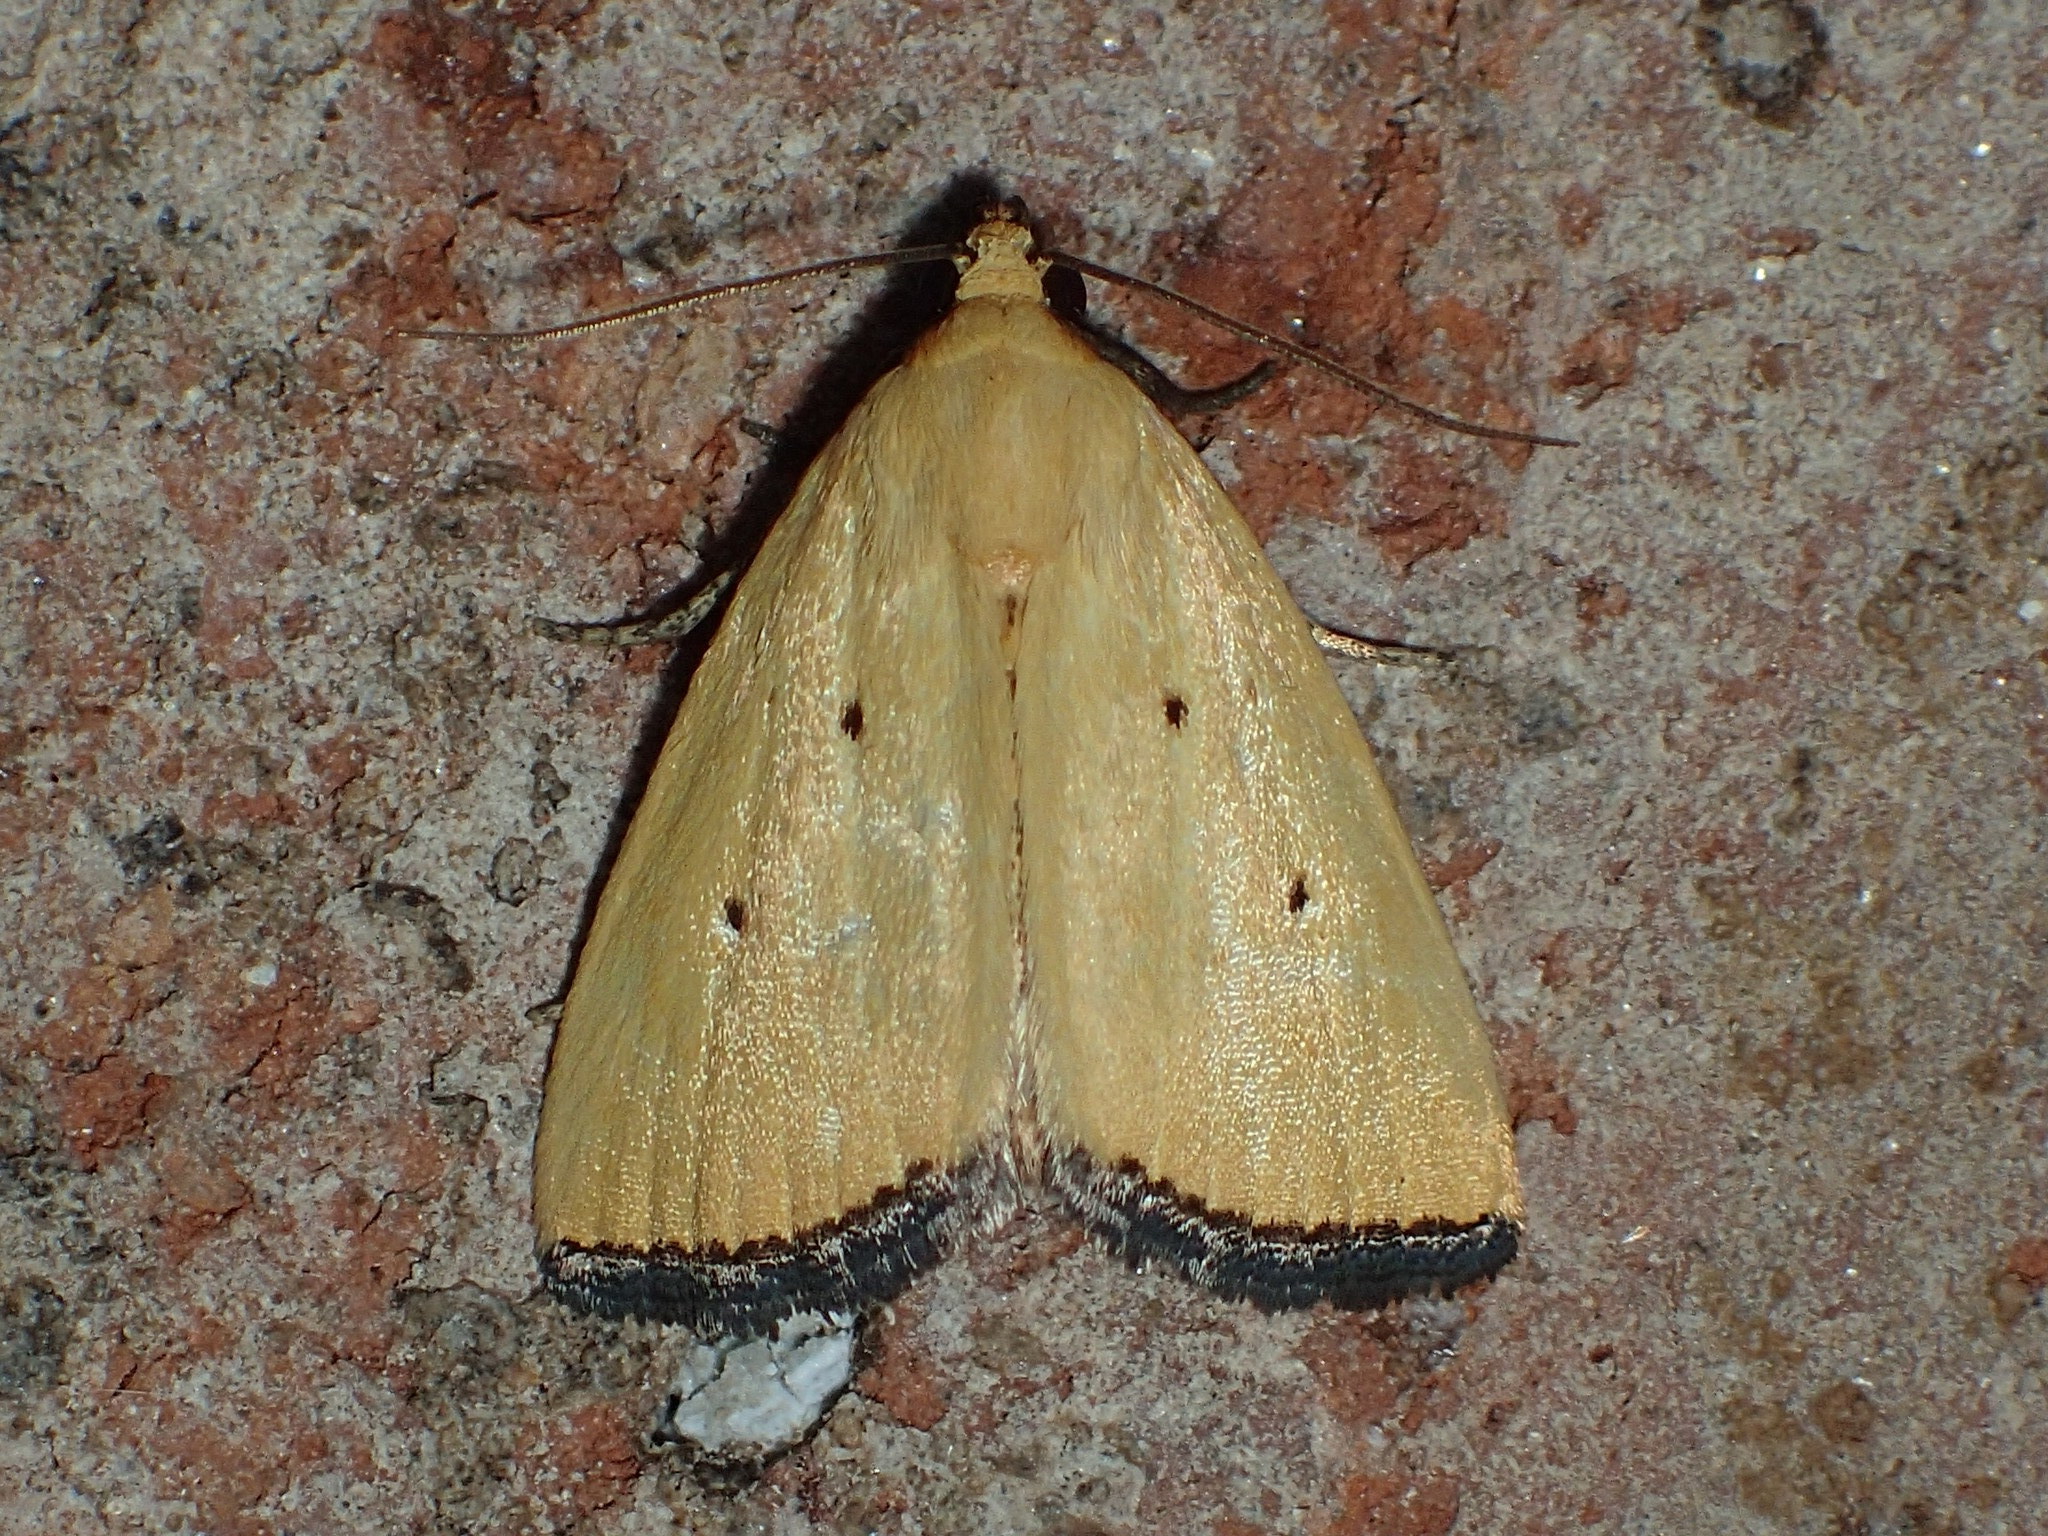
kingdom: Animalia
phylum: Arthropoda
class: Insecta
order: Lepidoptera
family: Noctuidae
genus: Marimatha
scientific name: Marimatha nigrofimbria
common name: Black-bordered lemon moth
